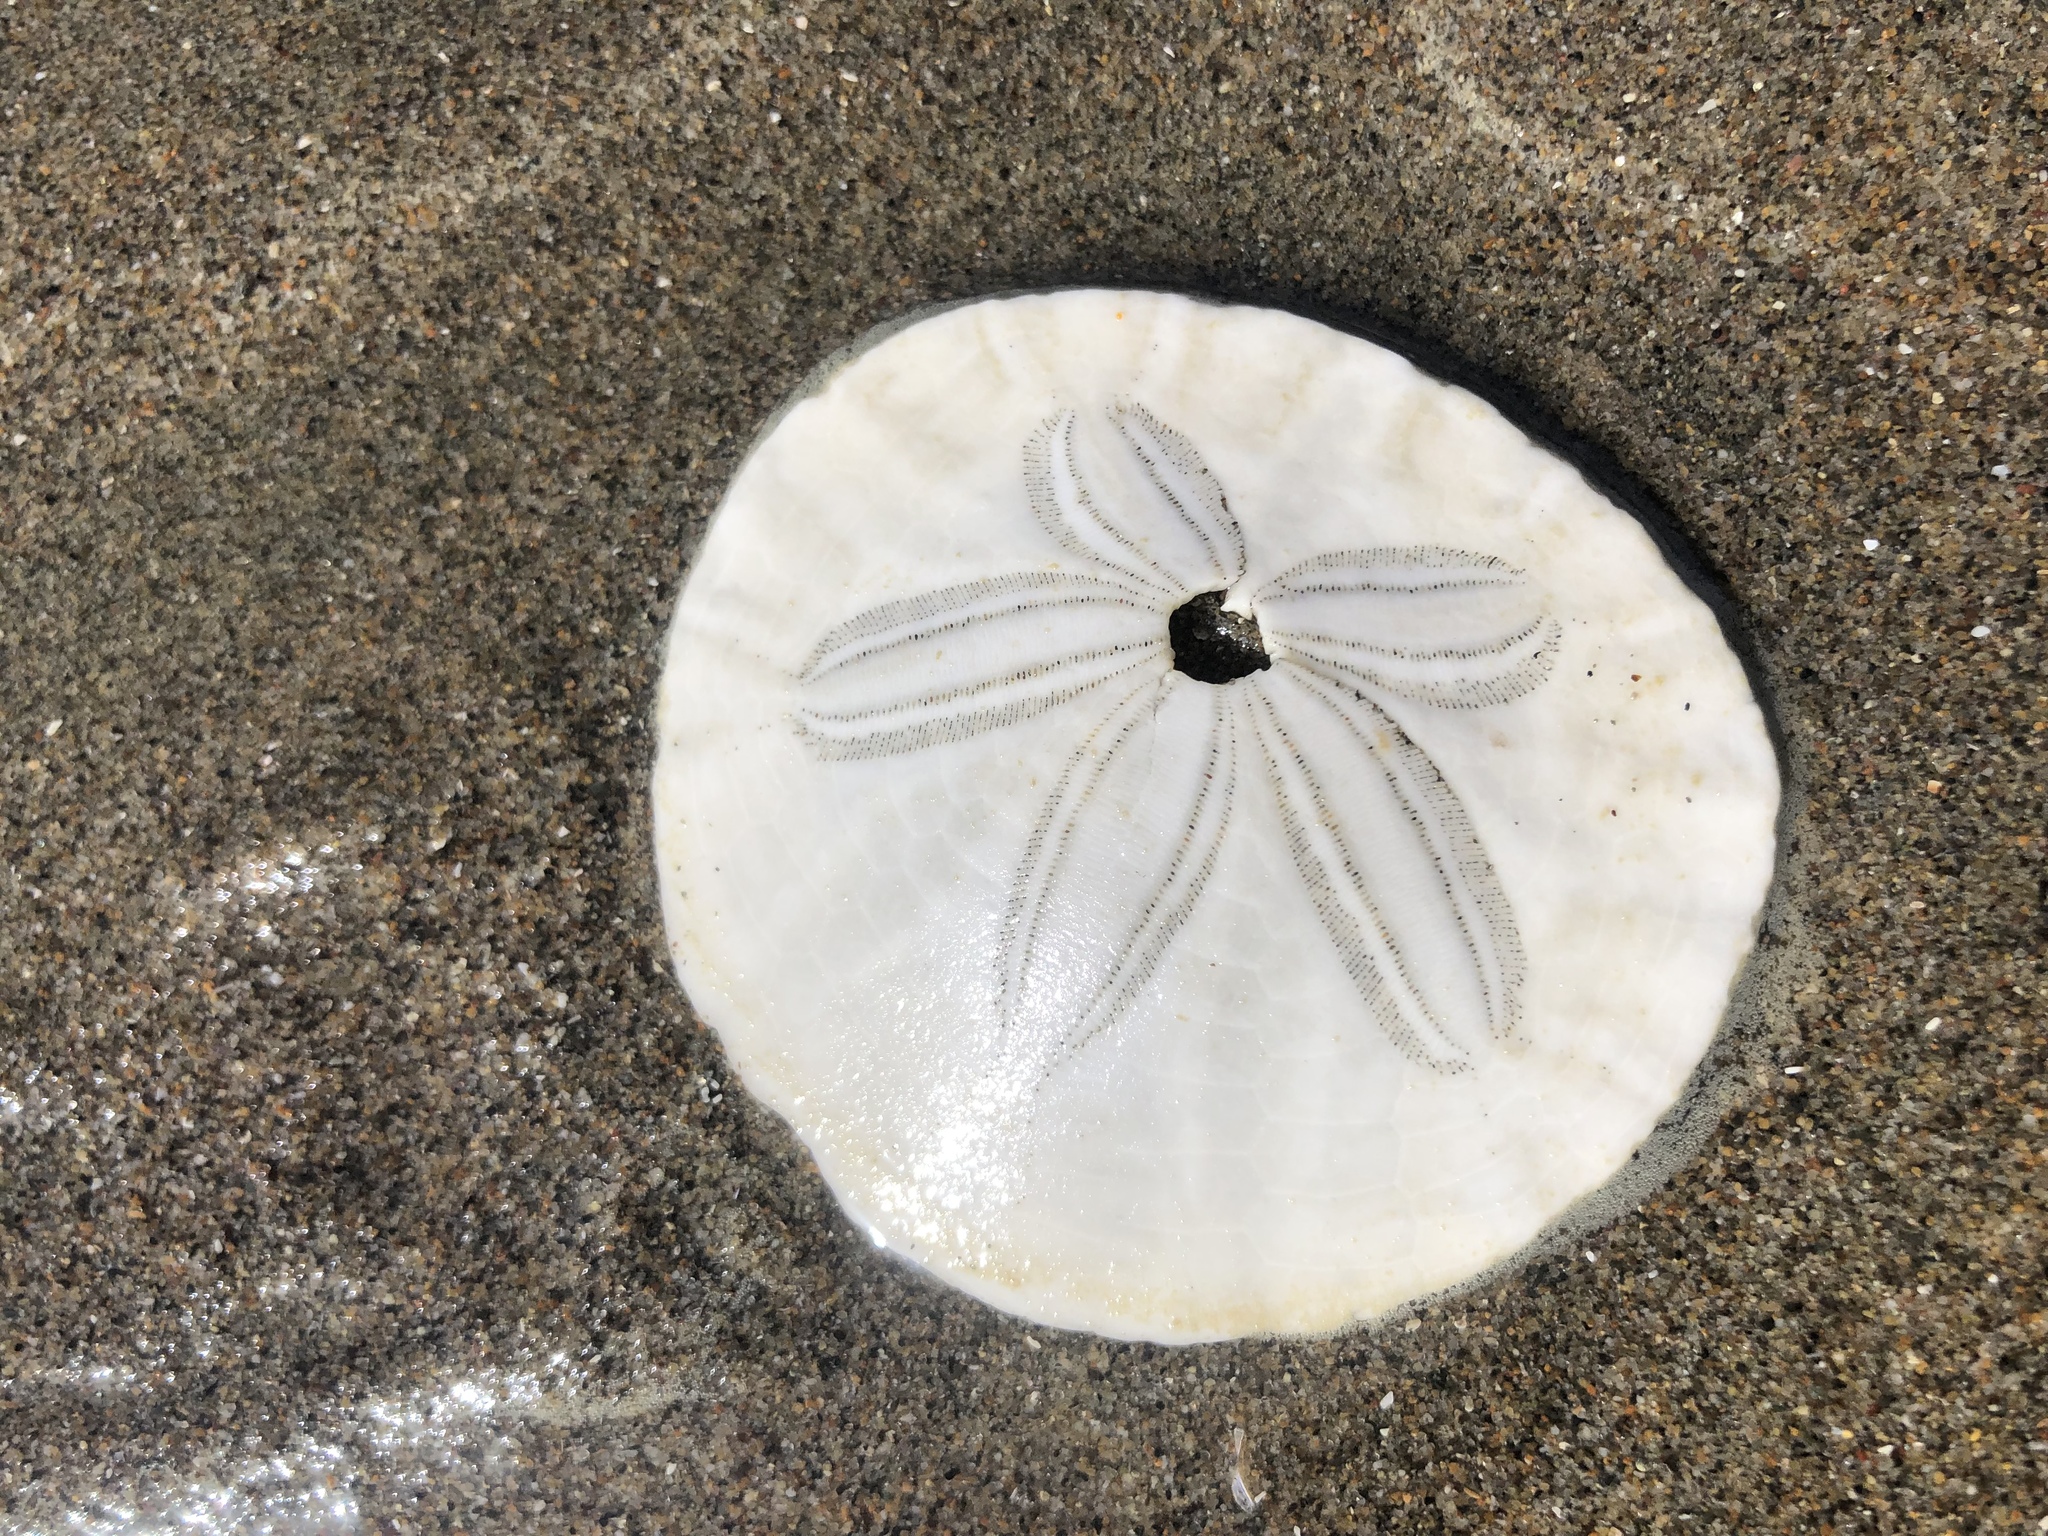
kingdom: Animalia
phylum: Echinodermata
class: Echinoidea
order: Echinolampadacea
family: Dendrasteridae
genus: Dendraster
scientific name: Dendraster excentricus
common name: Eccentric sand dollar sea urchin
